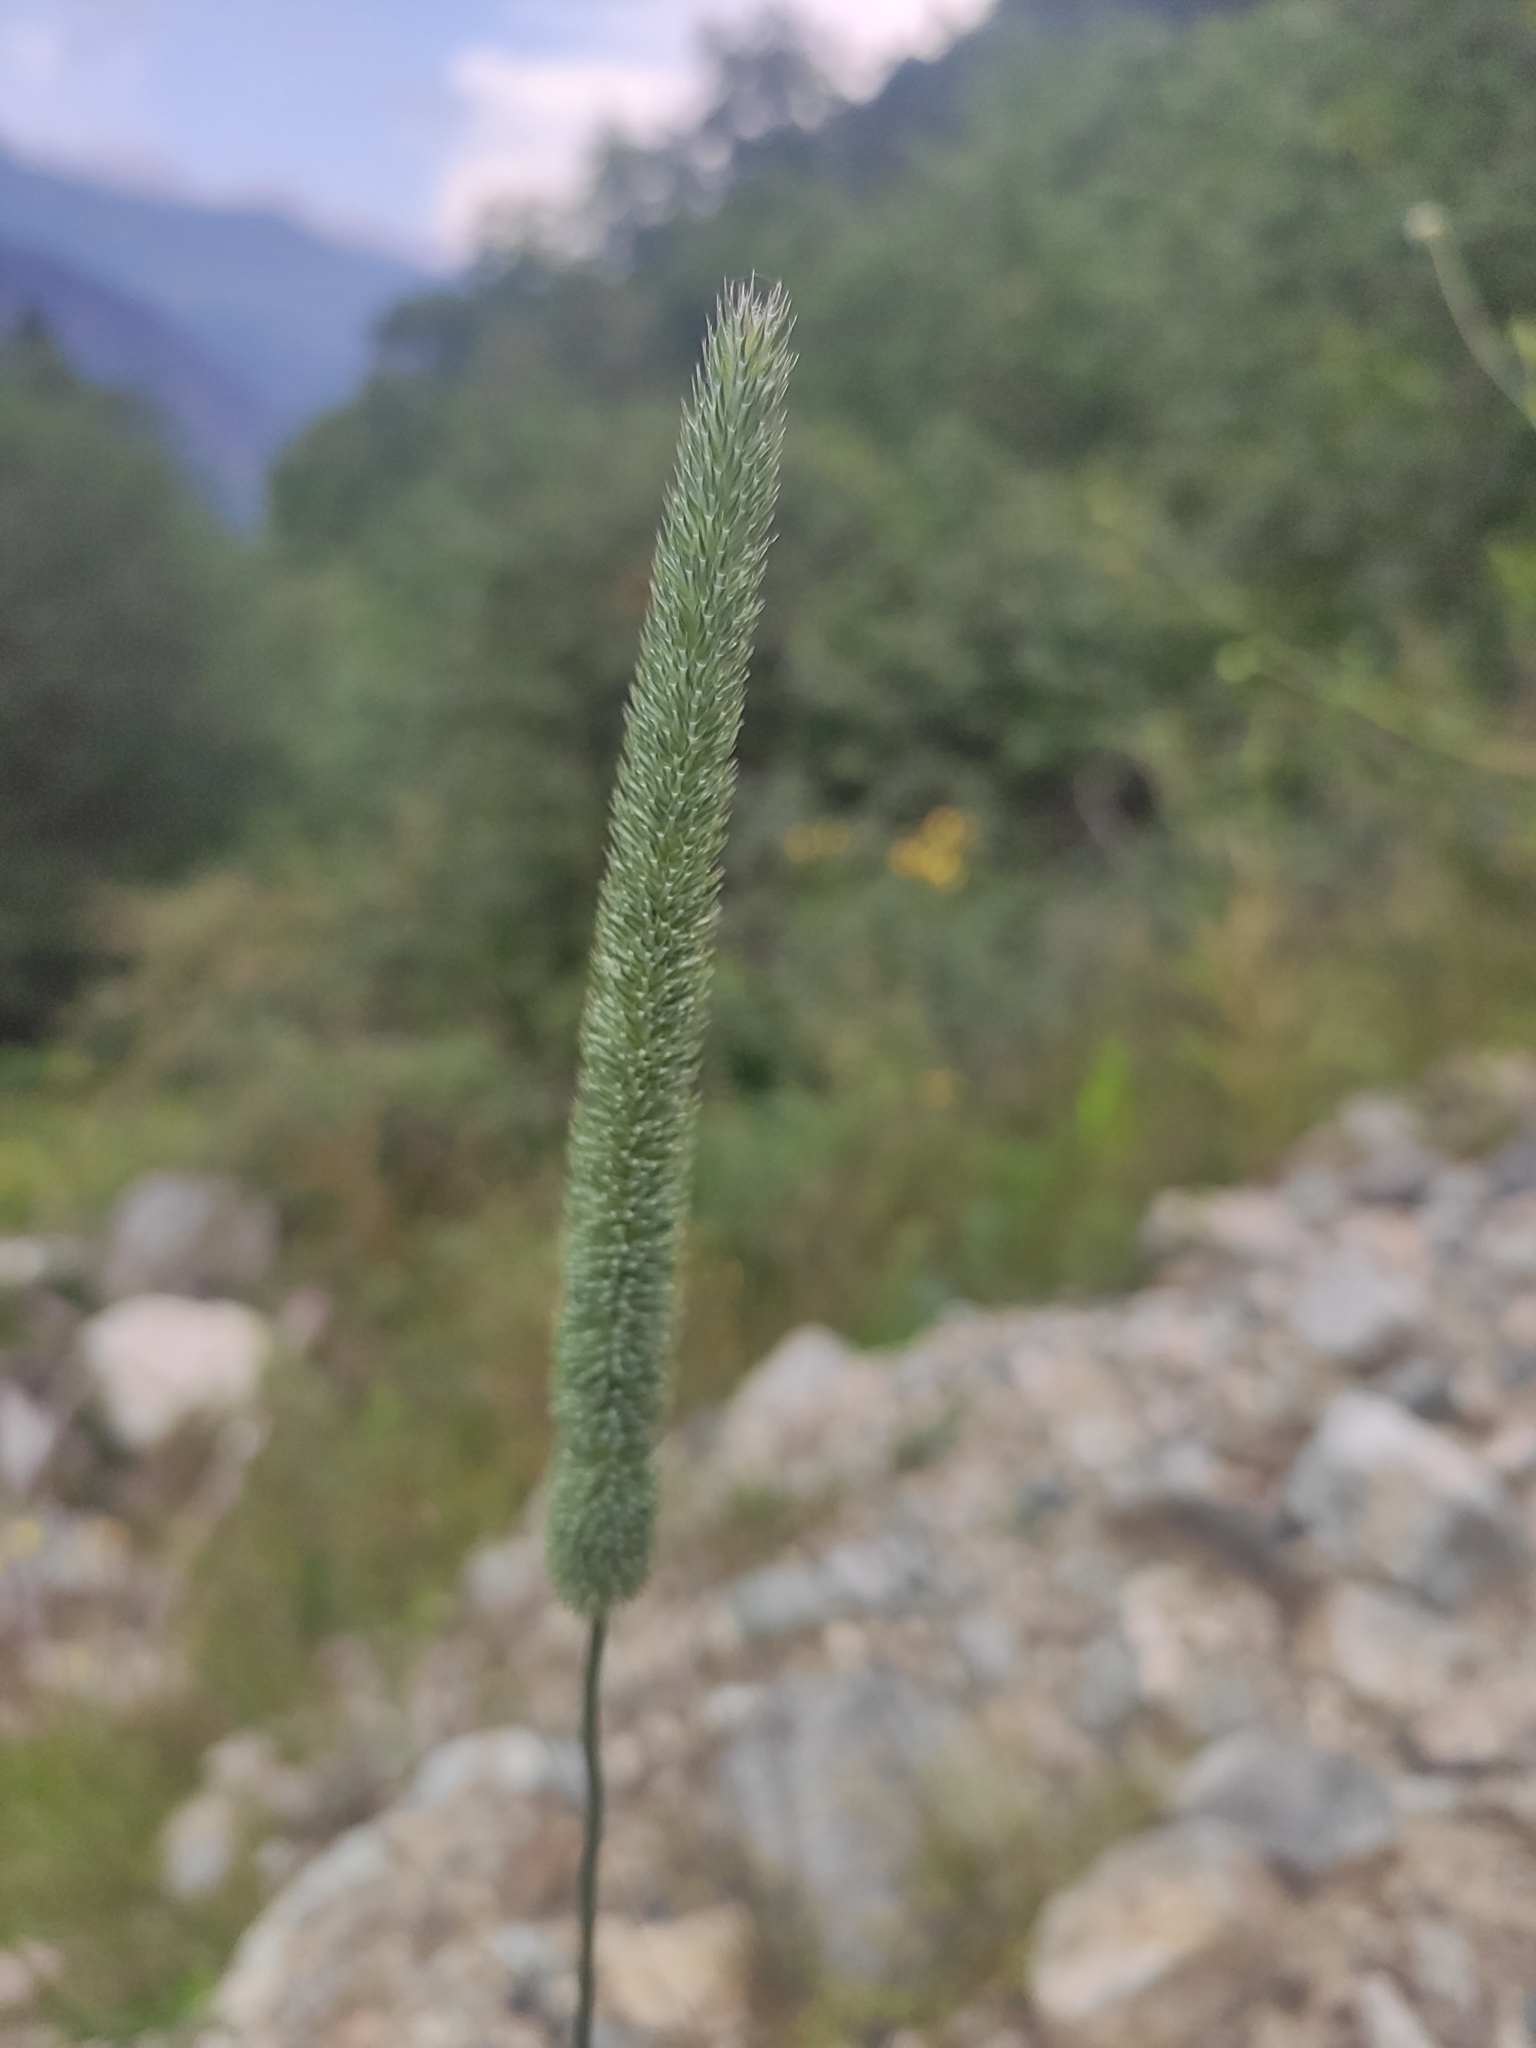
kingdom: Plantae
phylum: Tracheophyta
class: Liliopsida
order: Poales
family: Poaceae
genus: Phleum
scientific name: Phleum pratense
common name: Timothy grass
